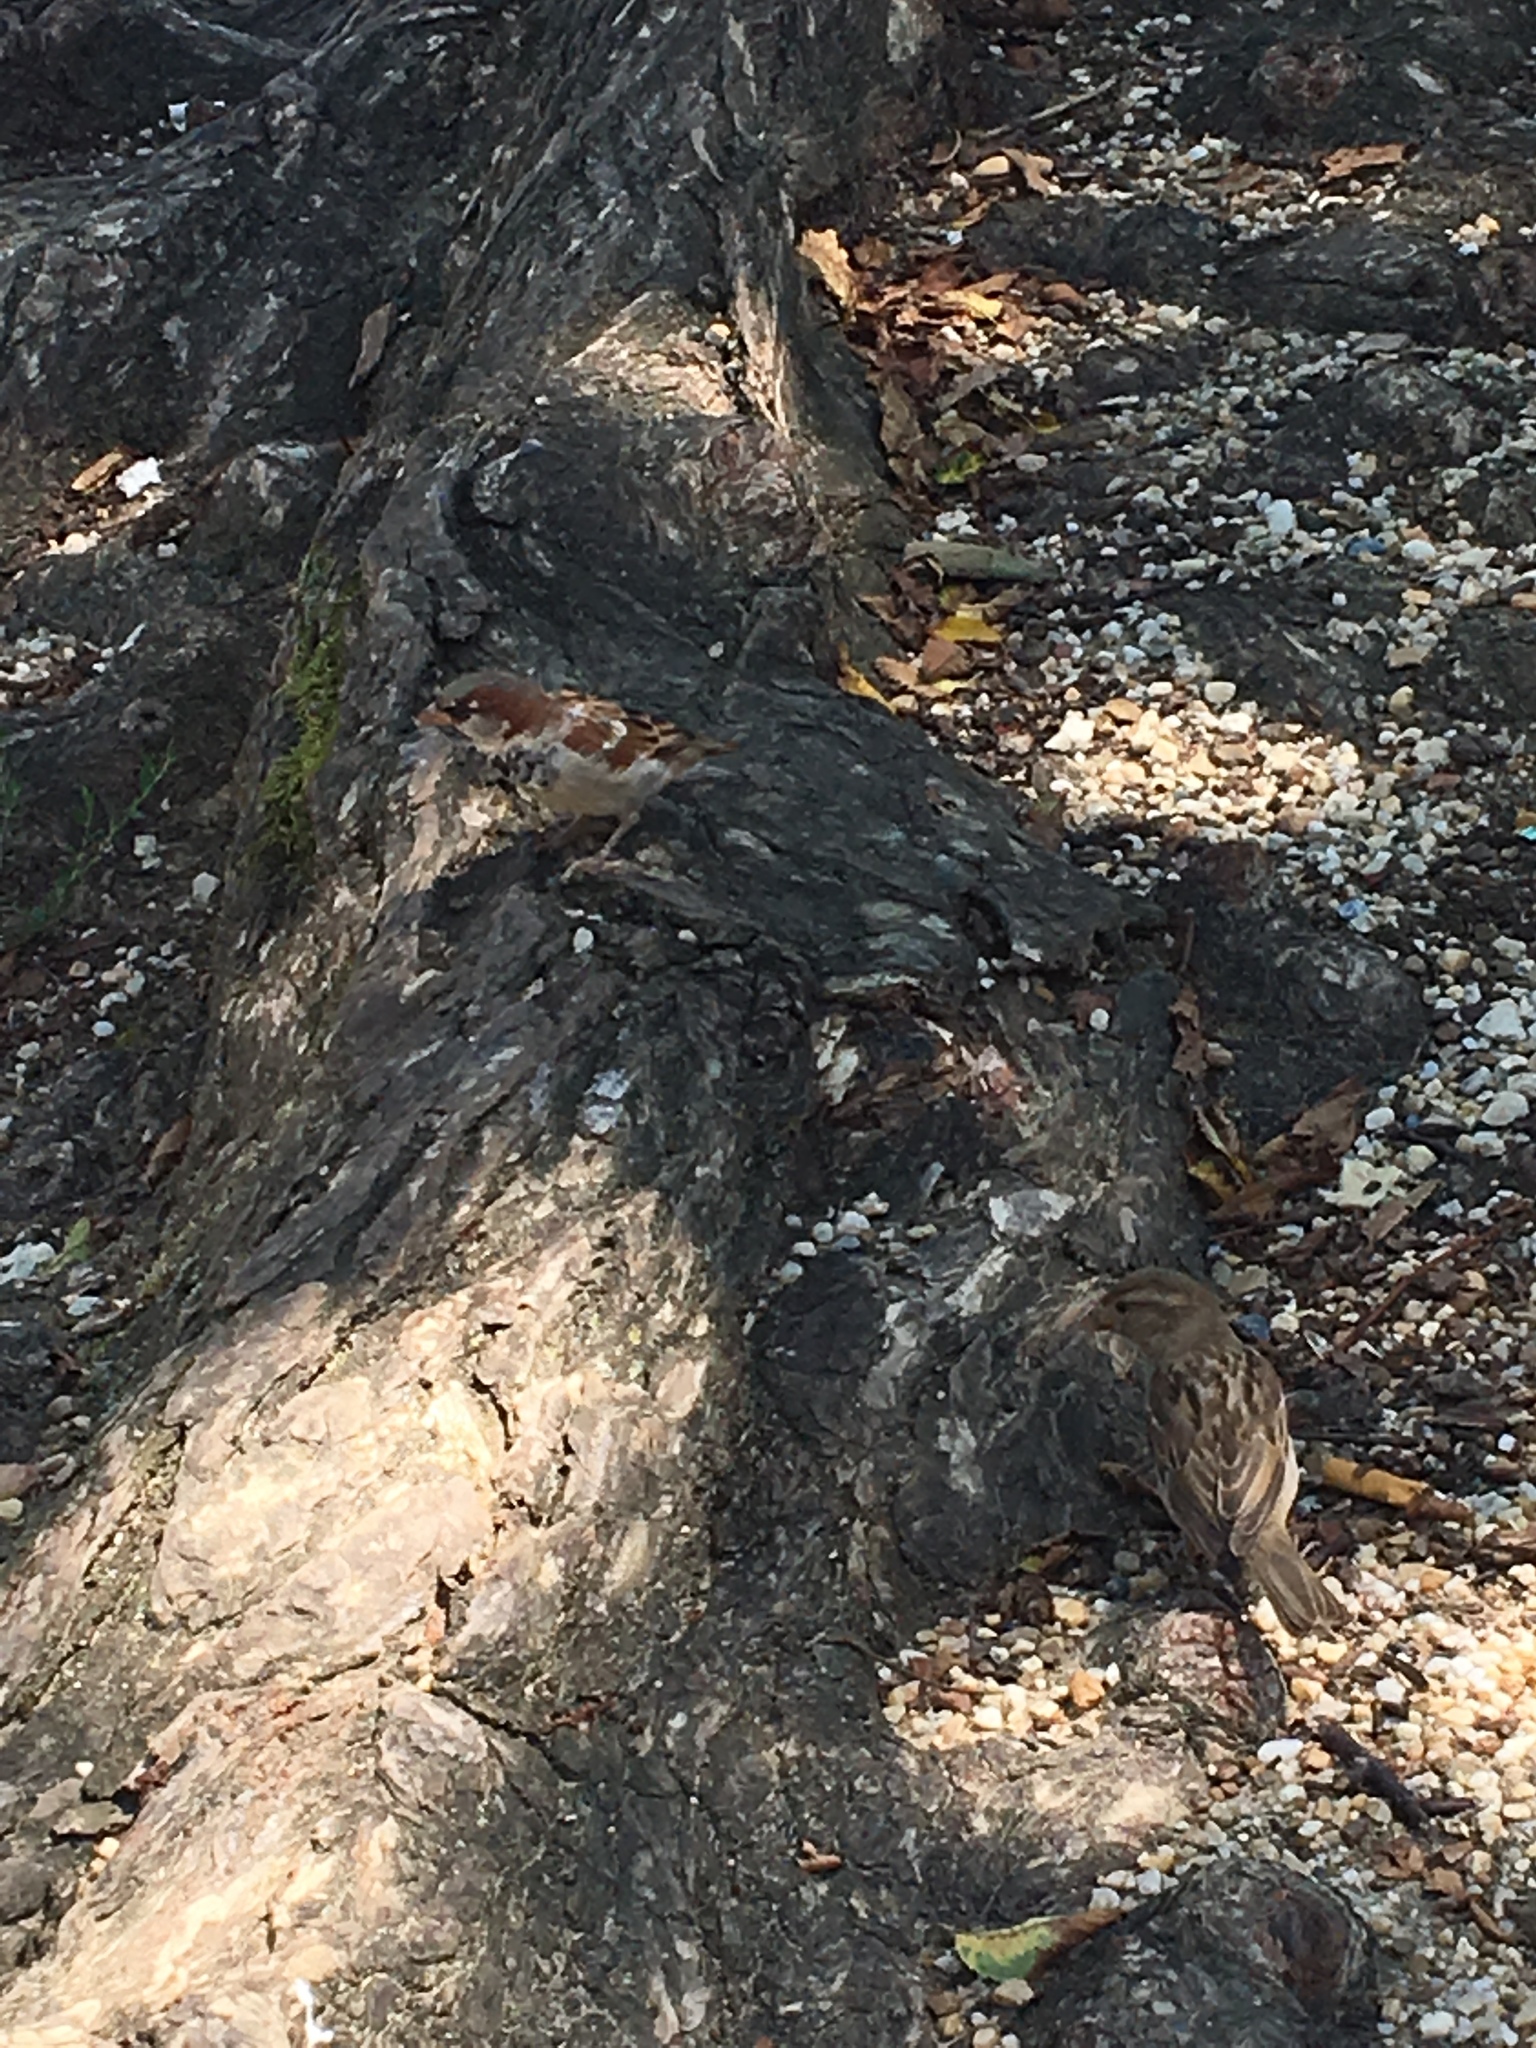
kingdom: Animalia
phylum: Chordata
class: Aves
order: Passeriformes
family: Passeridae
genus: Passer
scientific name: Passer domesticus
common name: House sparrow
